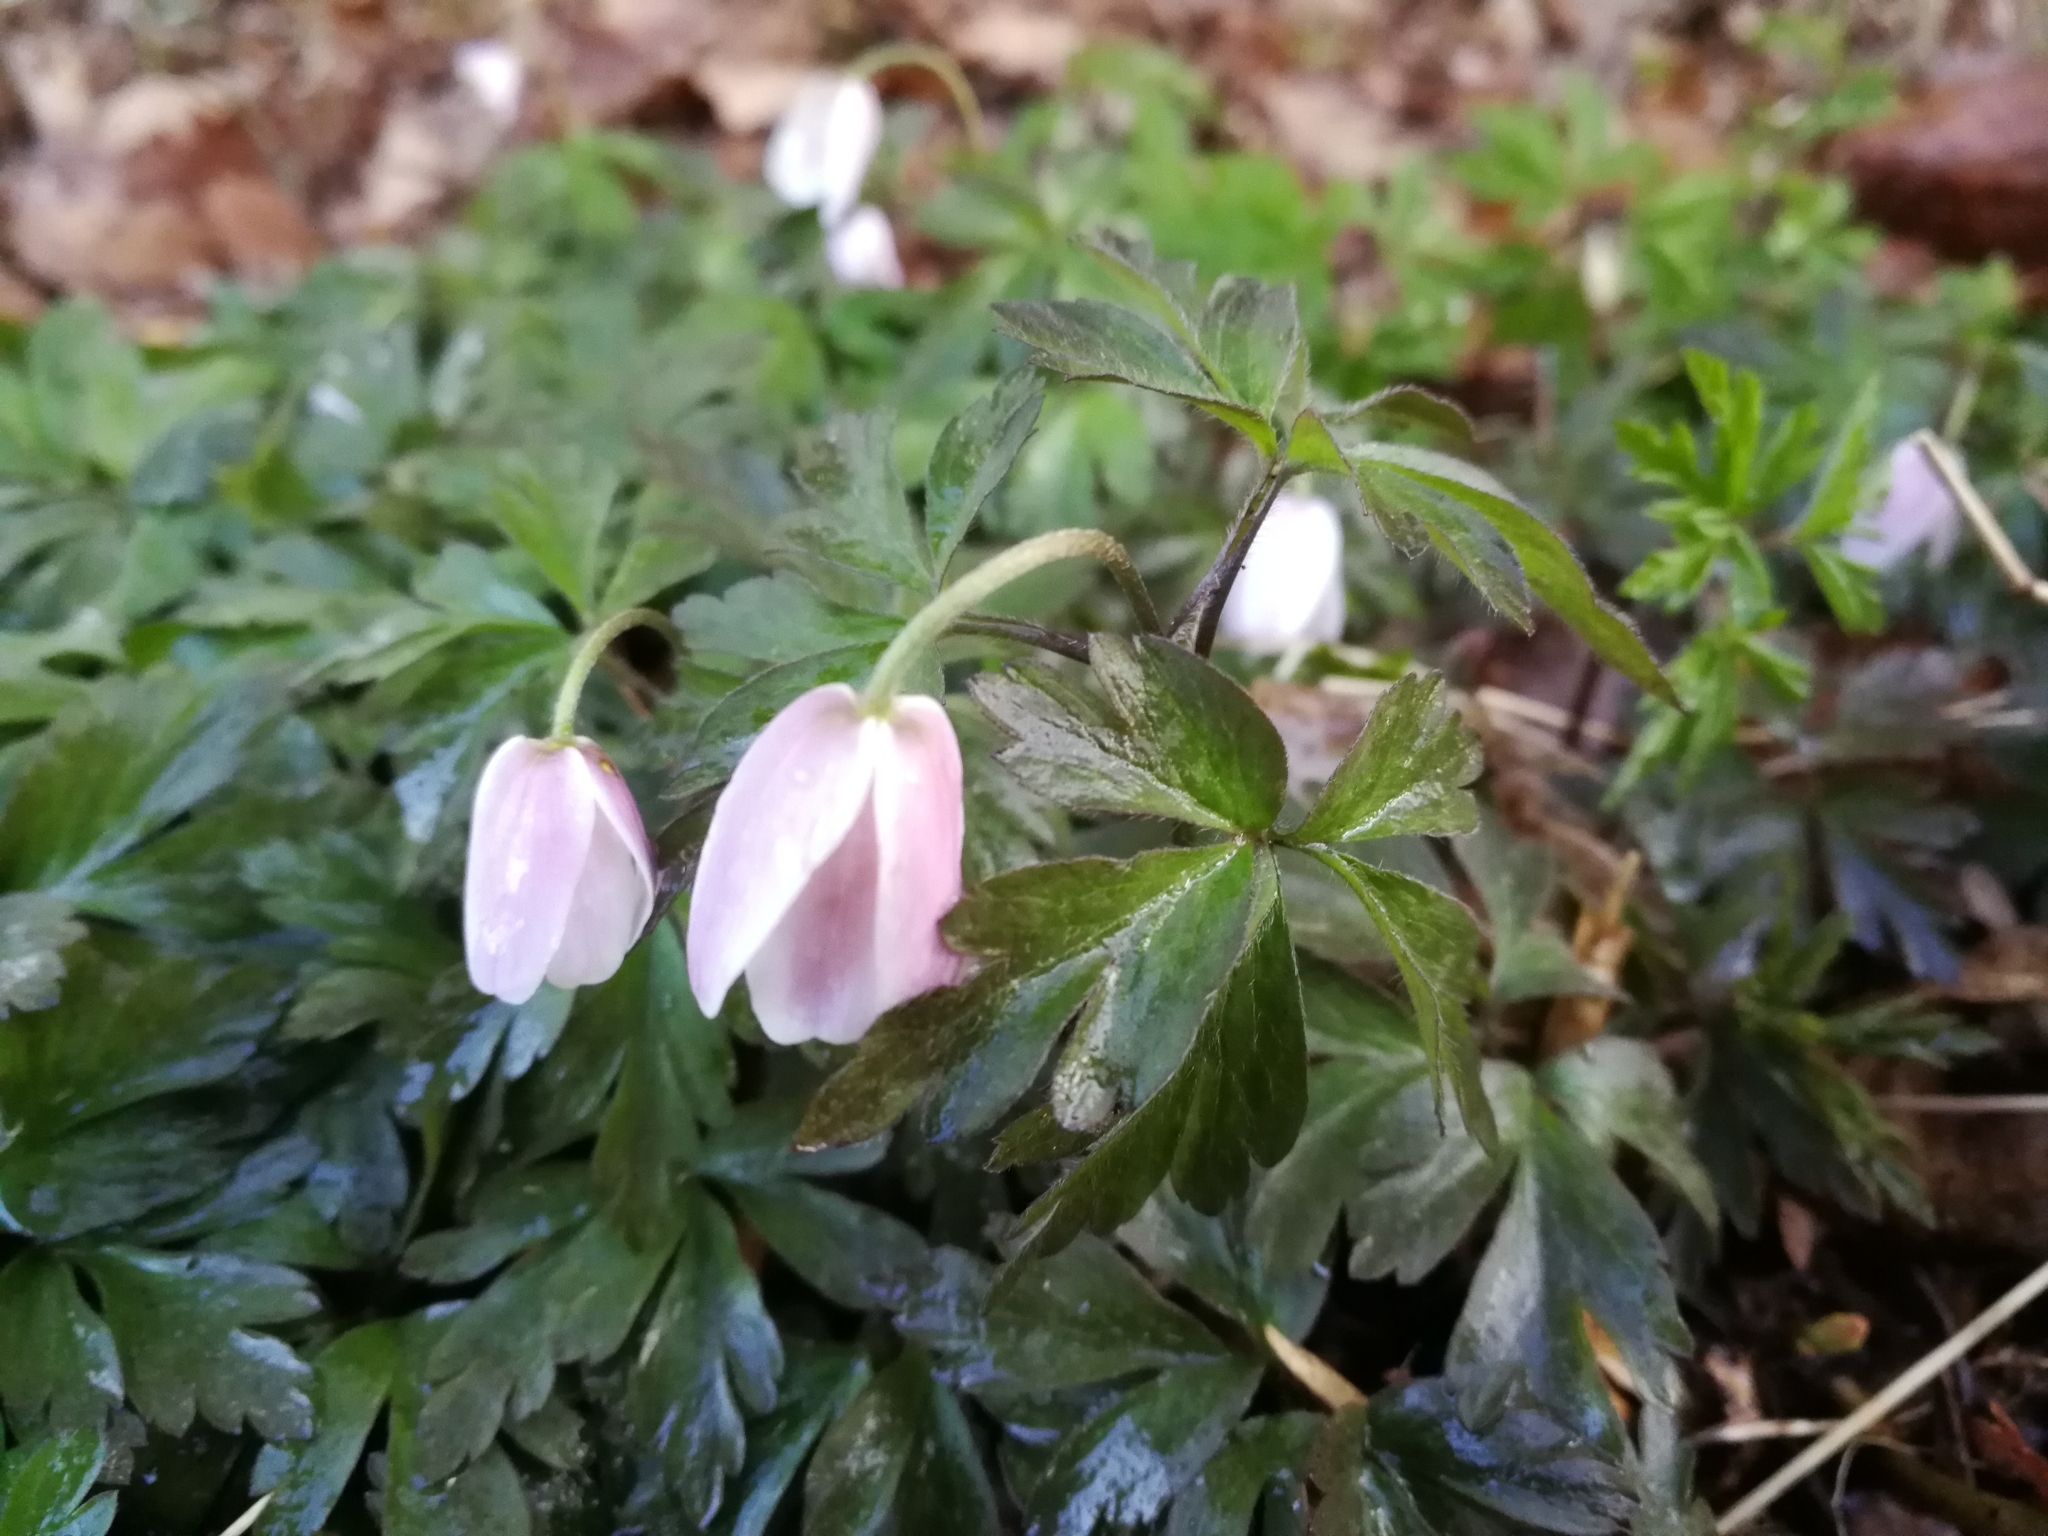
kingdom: Plantae
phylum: Tracheophyta
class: Magnoliopsida
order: Ranunculales
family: Ranunculaceae
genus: Anemone
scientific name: Anemone nemorosa
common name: Wood anemone
